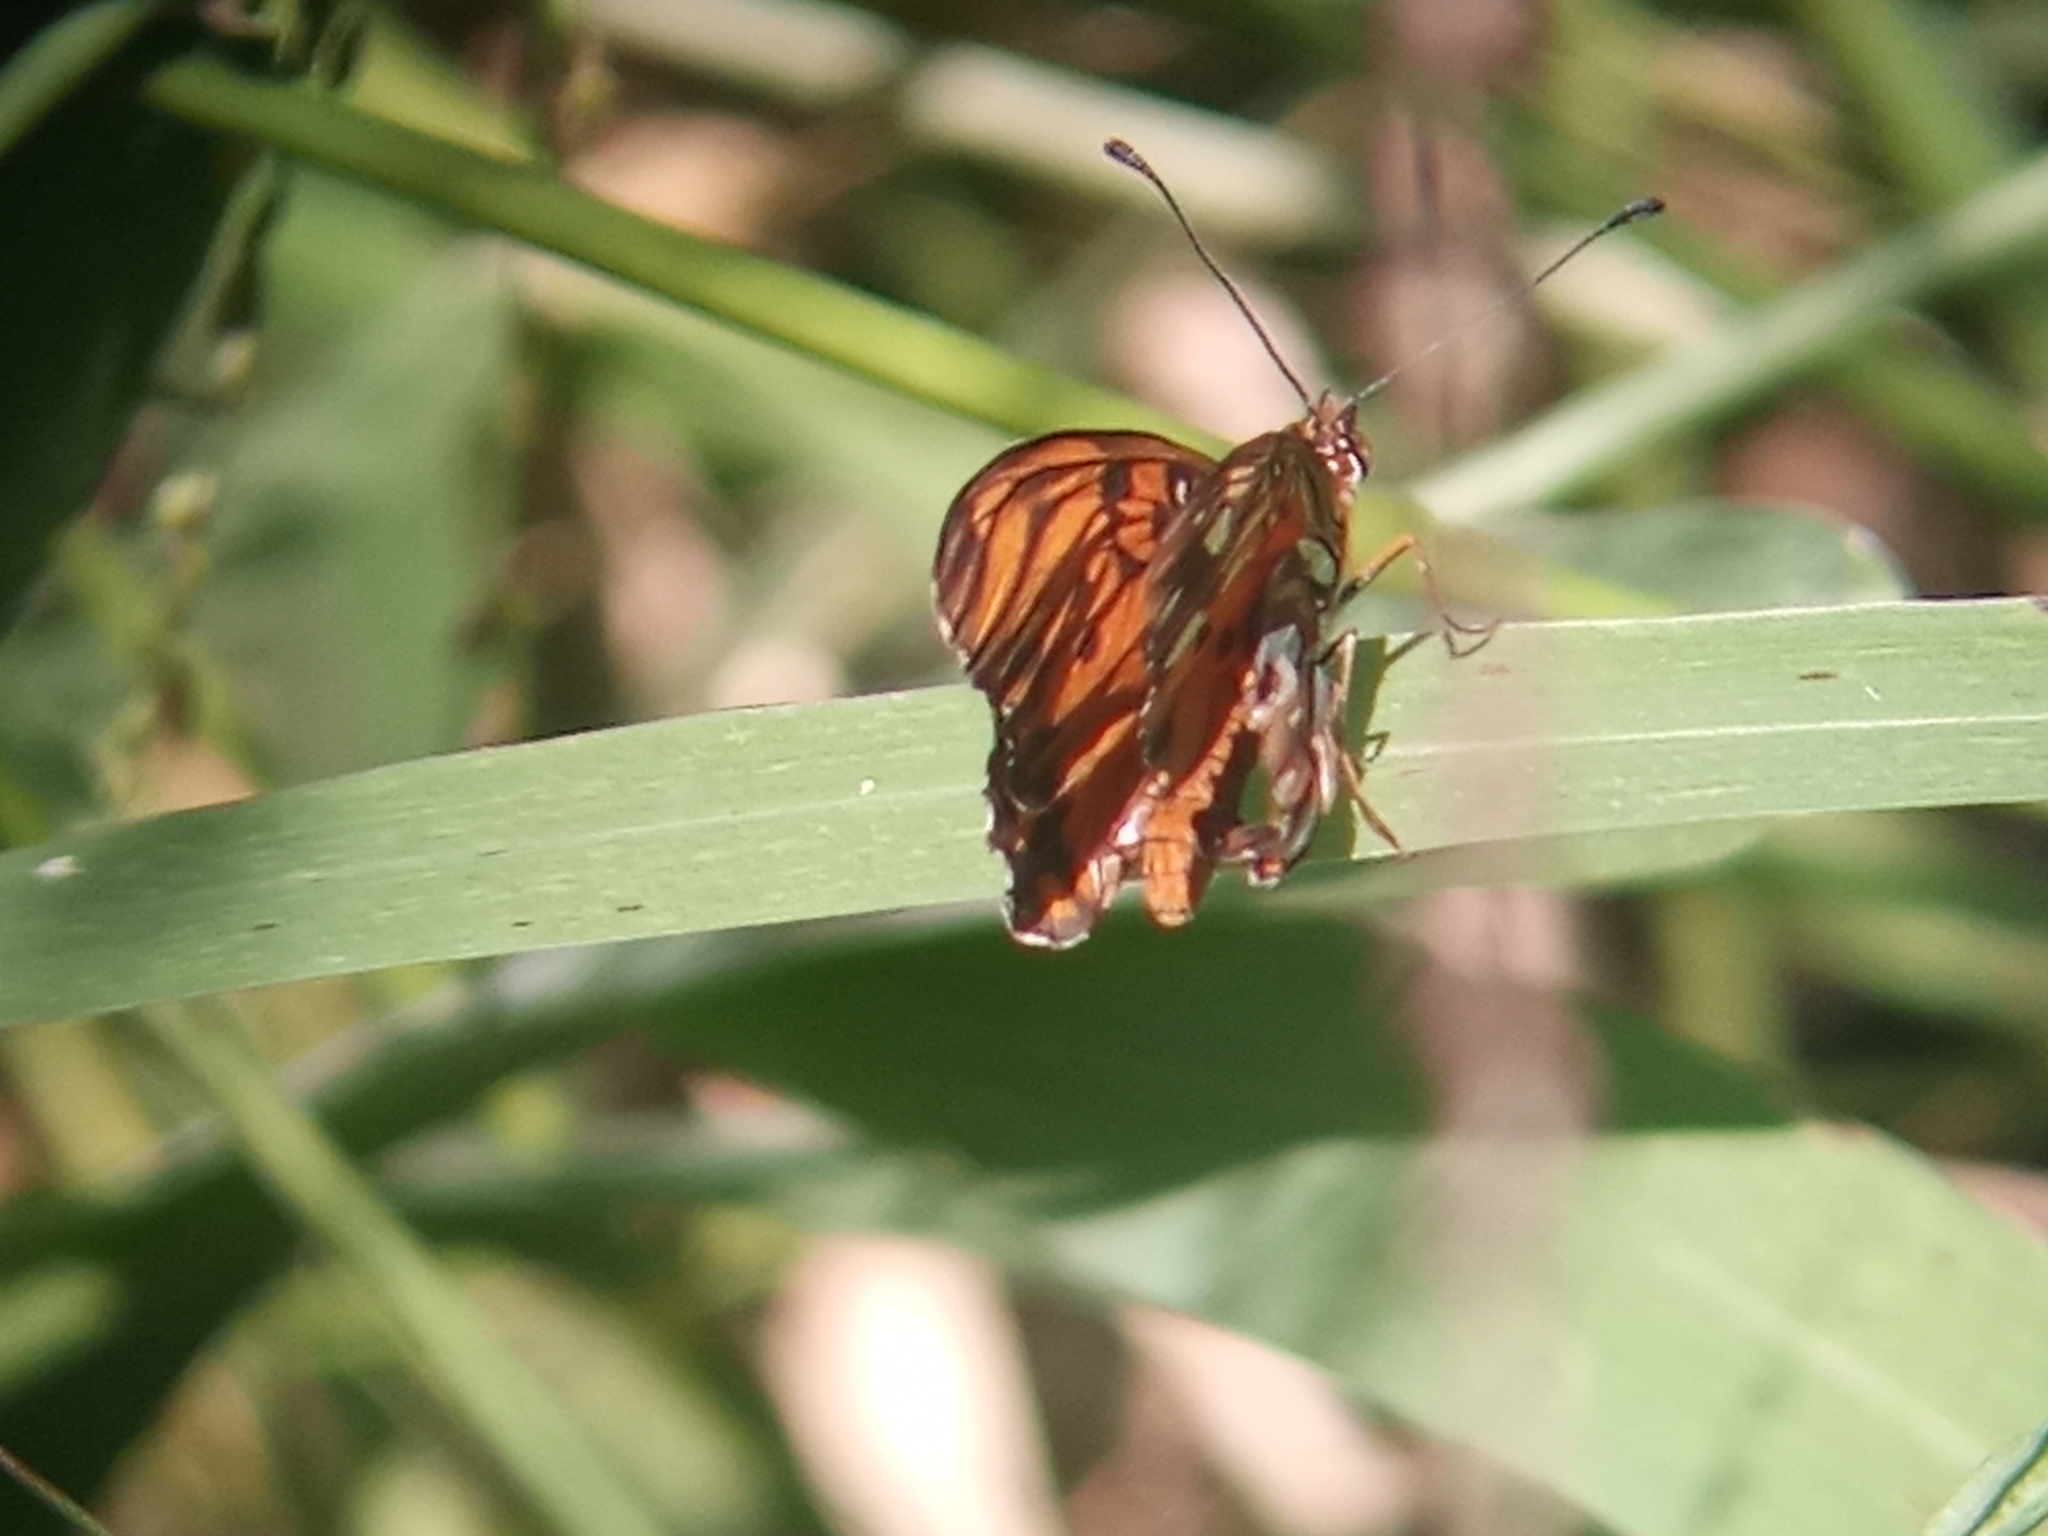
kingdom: Animalia
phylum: Arthropoda
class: Insecta
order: Lepidoptera
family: Nymphalidae
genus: Dione
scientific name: Dione vanillae
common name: Gulf fritillary
